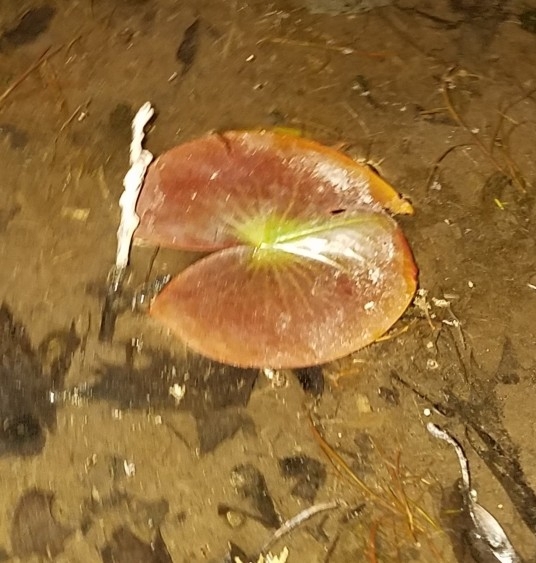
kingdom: Plantae
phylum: Tracheophyta
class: Magnoliopsida
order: Nymphaeales
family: Nymphaeaceae
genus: Nymphaea
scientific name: Nymphaea odorata
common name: Fragrant water-lily
